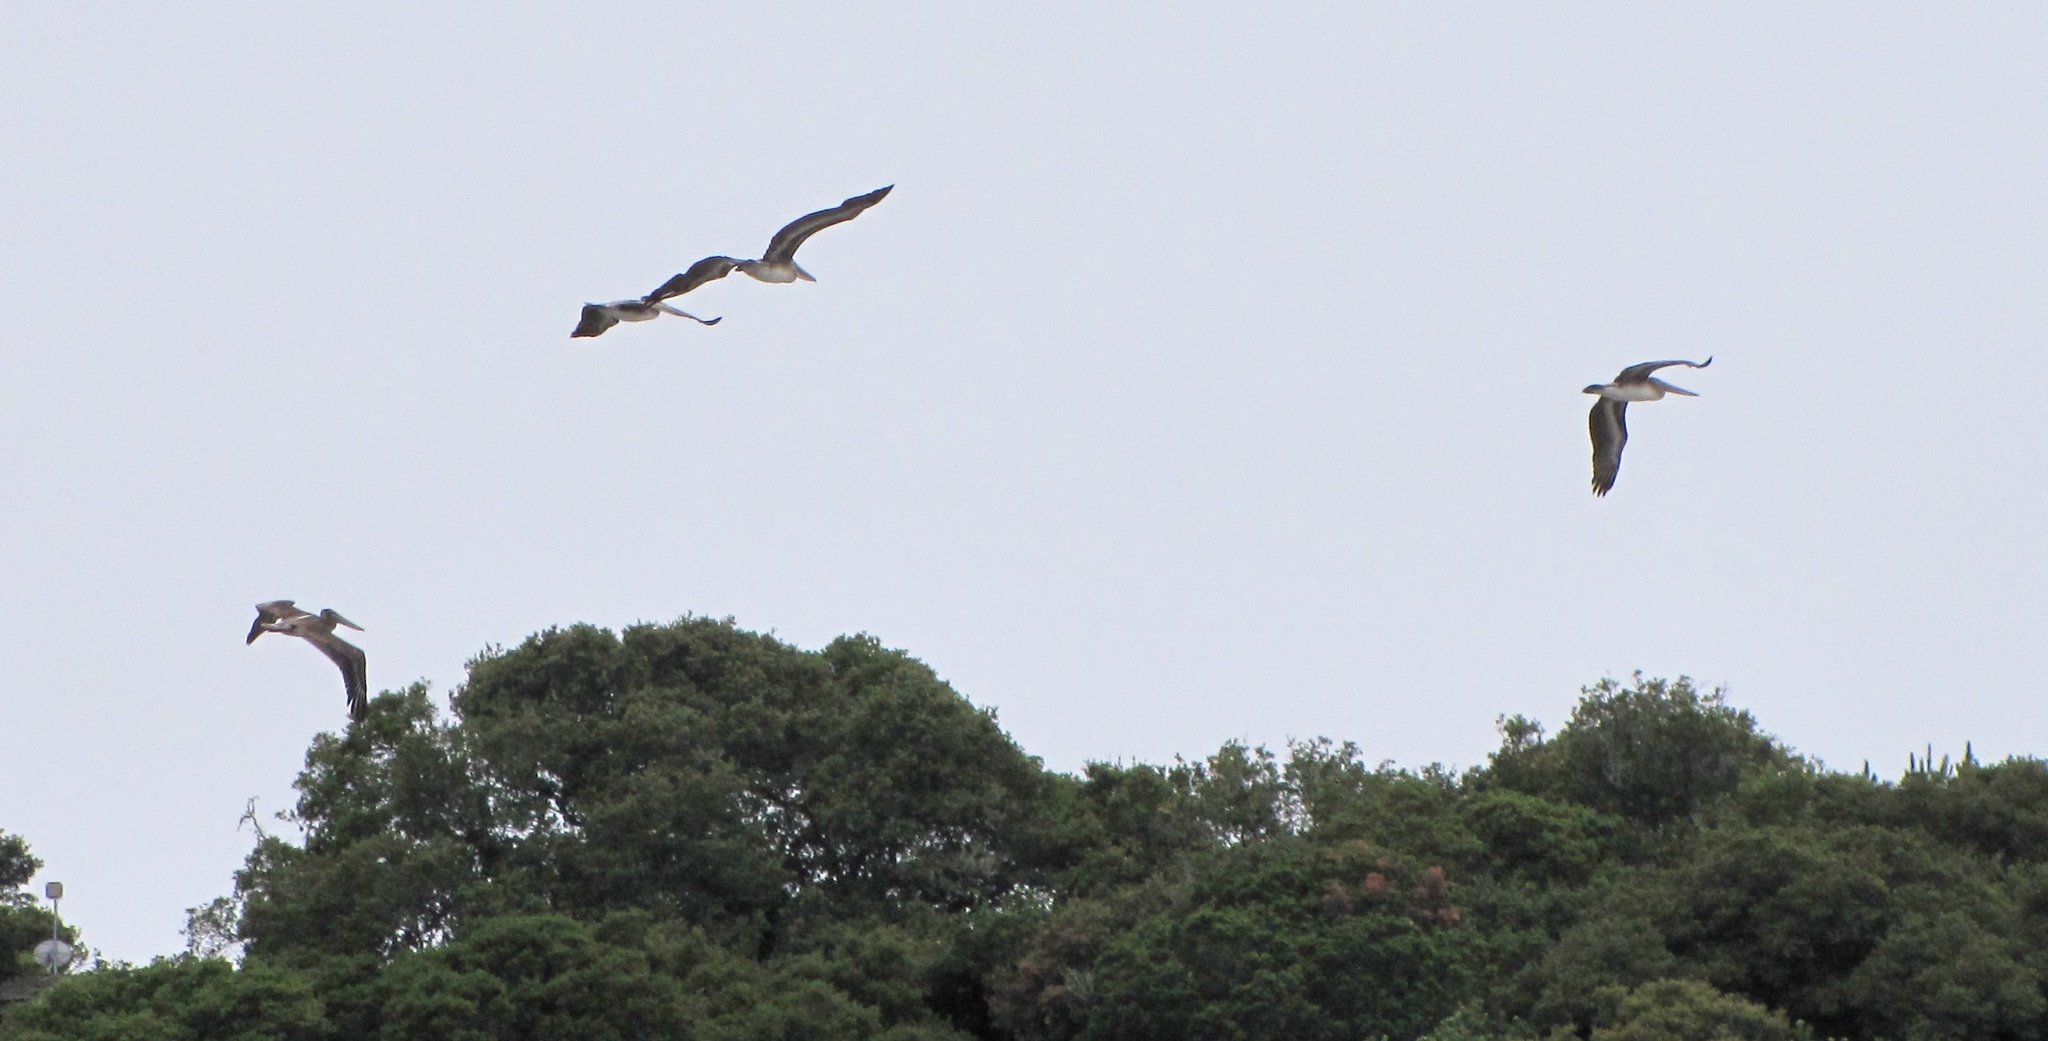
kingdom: Animalia
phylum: Chordata
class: Aves
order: Pelecaniformes
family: Pelecanidae
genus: Pelecanus
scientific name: Pelecanus occidentalis
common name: Brown pelican
